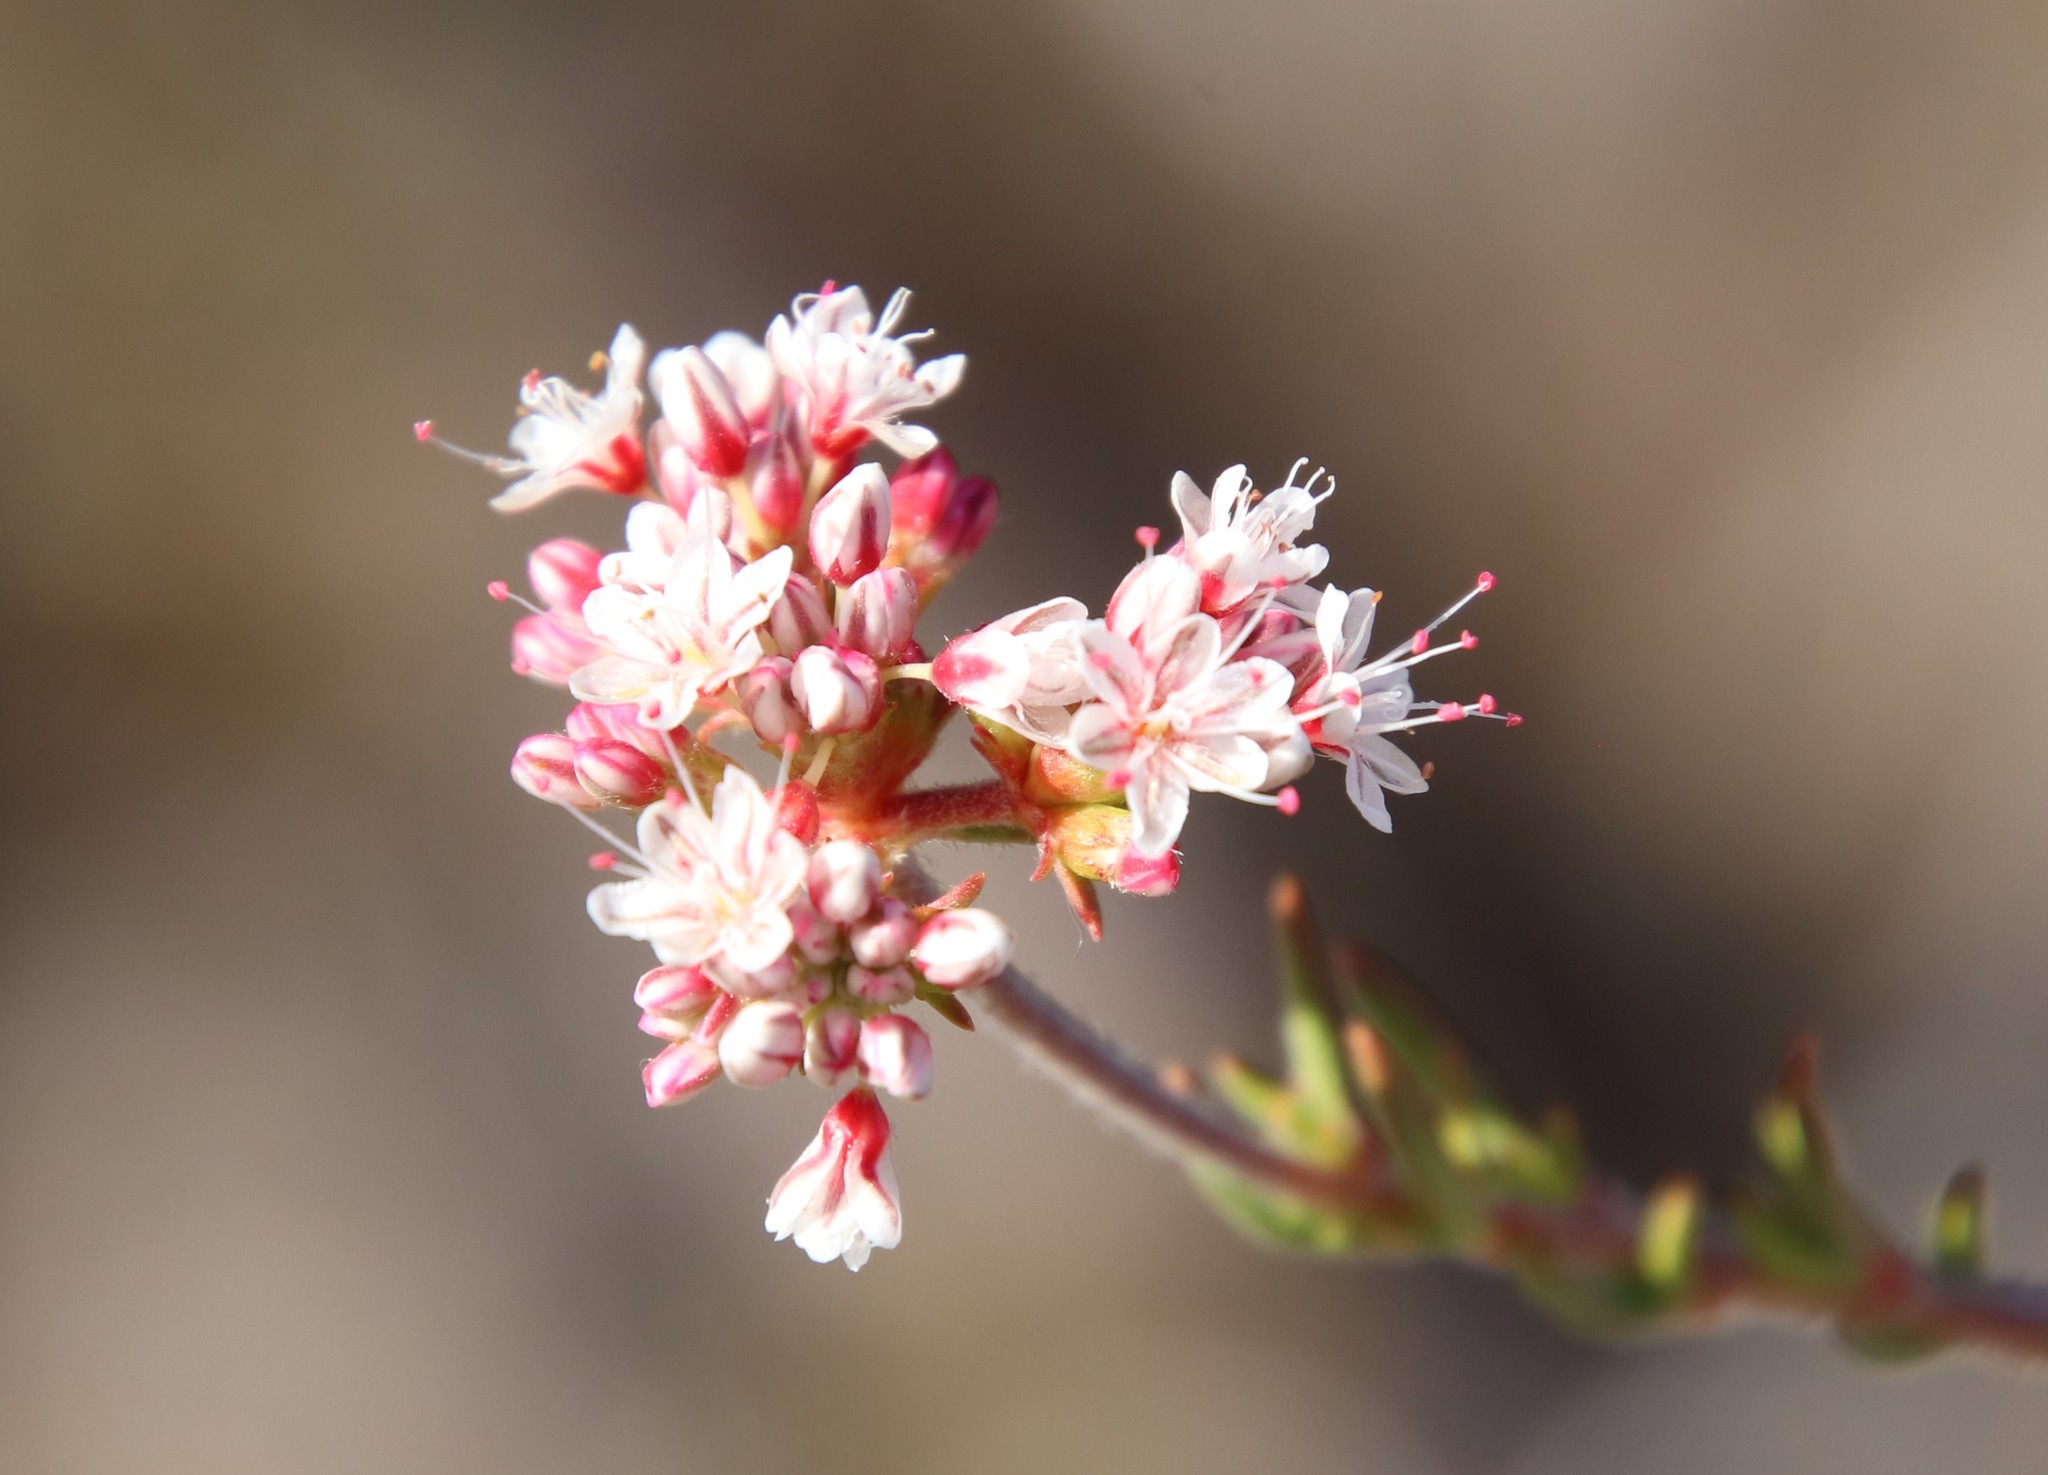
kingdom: Plantae
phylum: Tracheophyta
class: Magnoliopsida
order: Caryophyllales
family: Polygonaceae
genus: Eriogonum
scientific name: Eriogonum fasciculatum
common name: California wild buckwheat
